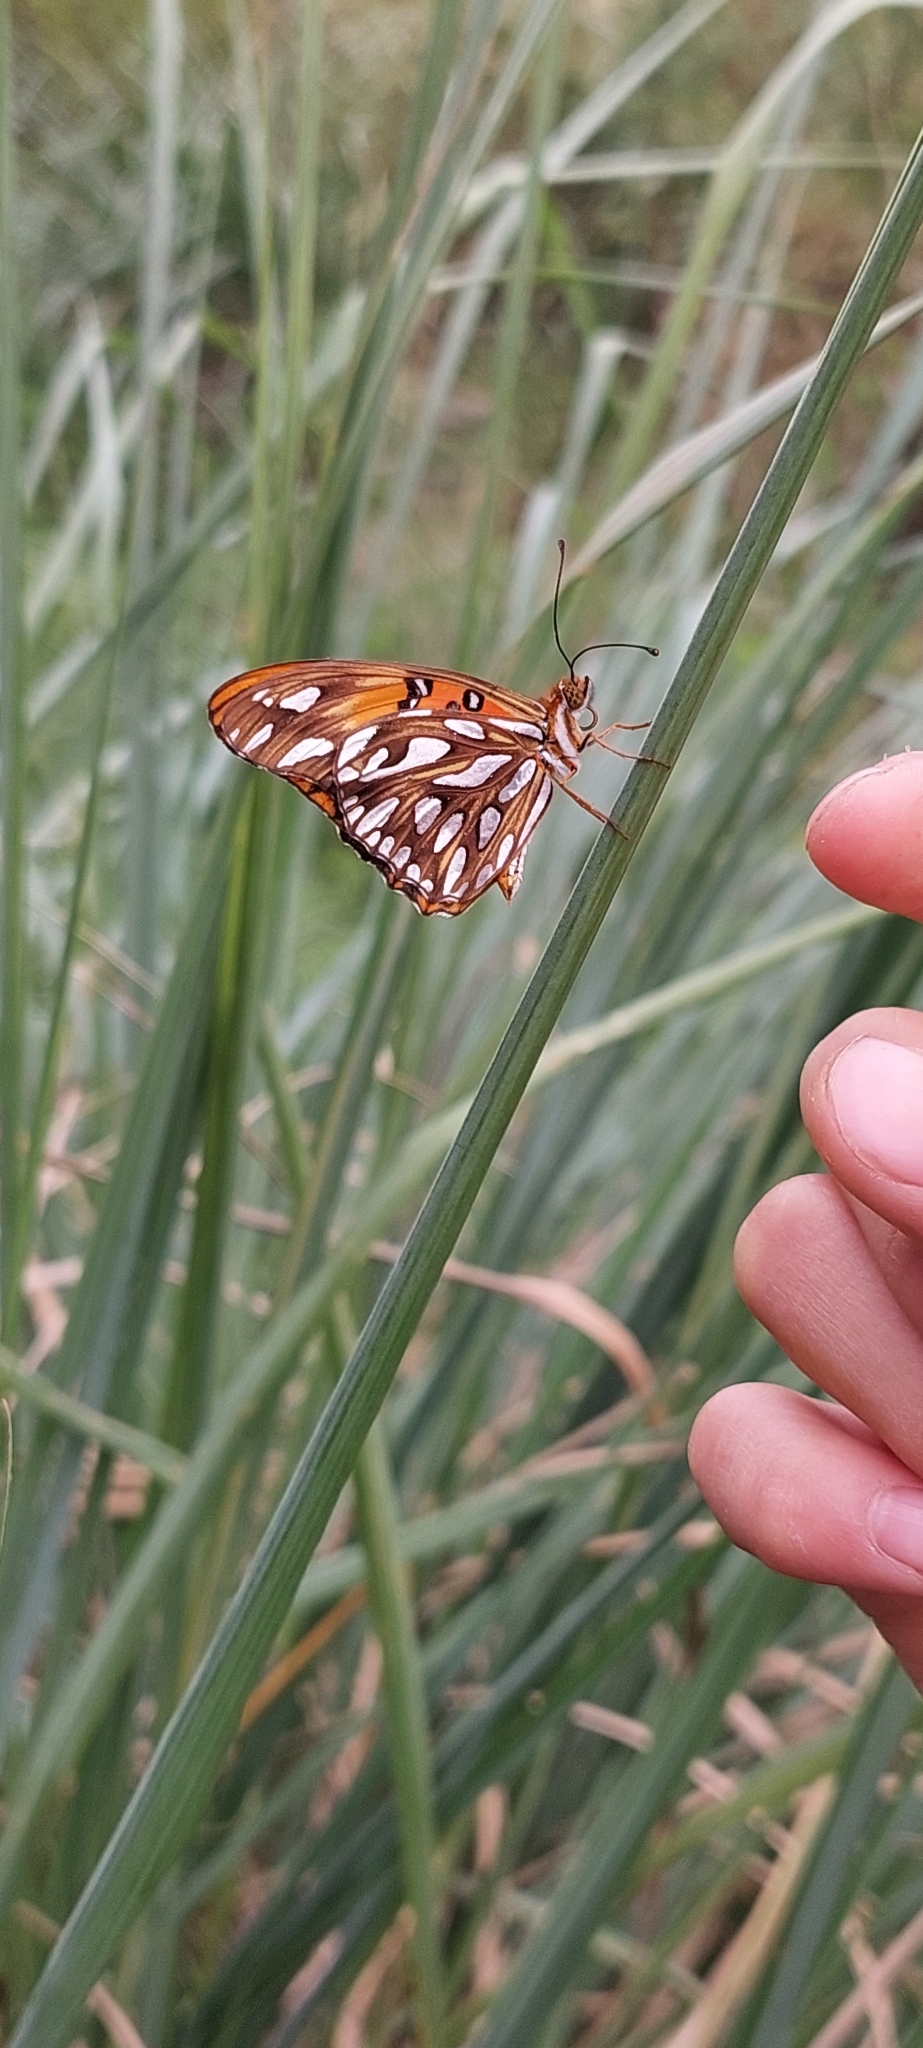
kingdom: Animalia
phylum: Arthropoda
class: Insecta
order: Lepidoptera
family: Nymphalidae
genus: Dione
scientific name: Dione vanillae
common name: Gulf fritillary
